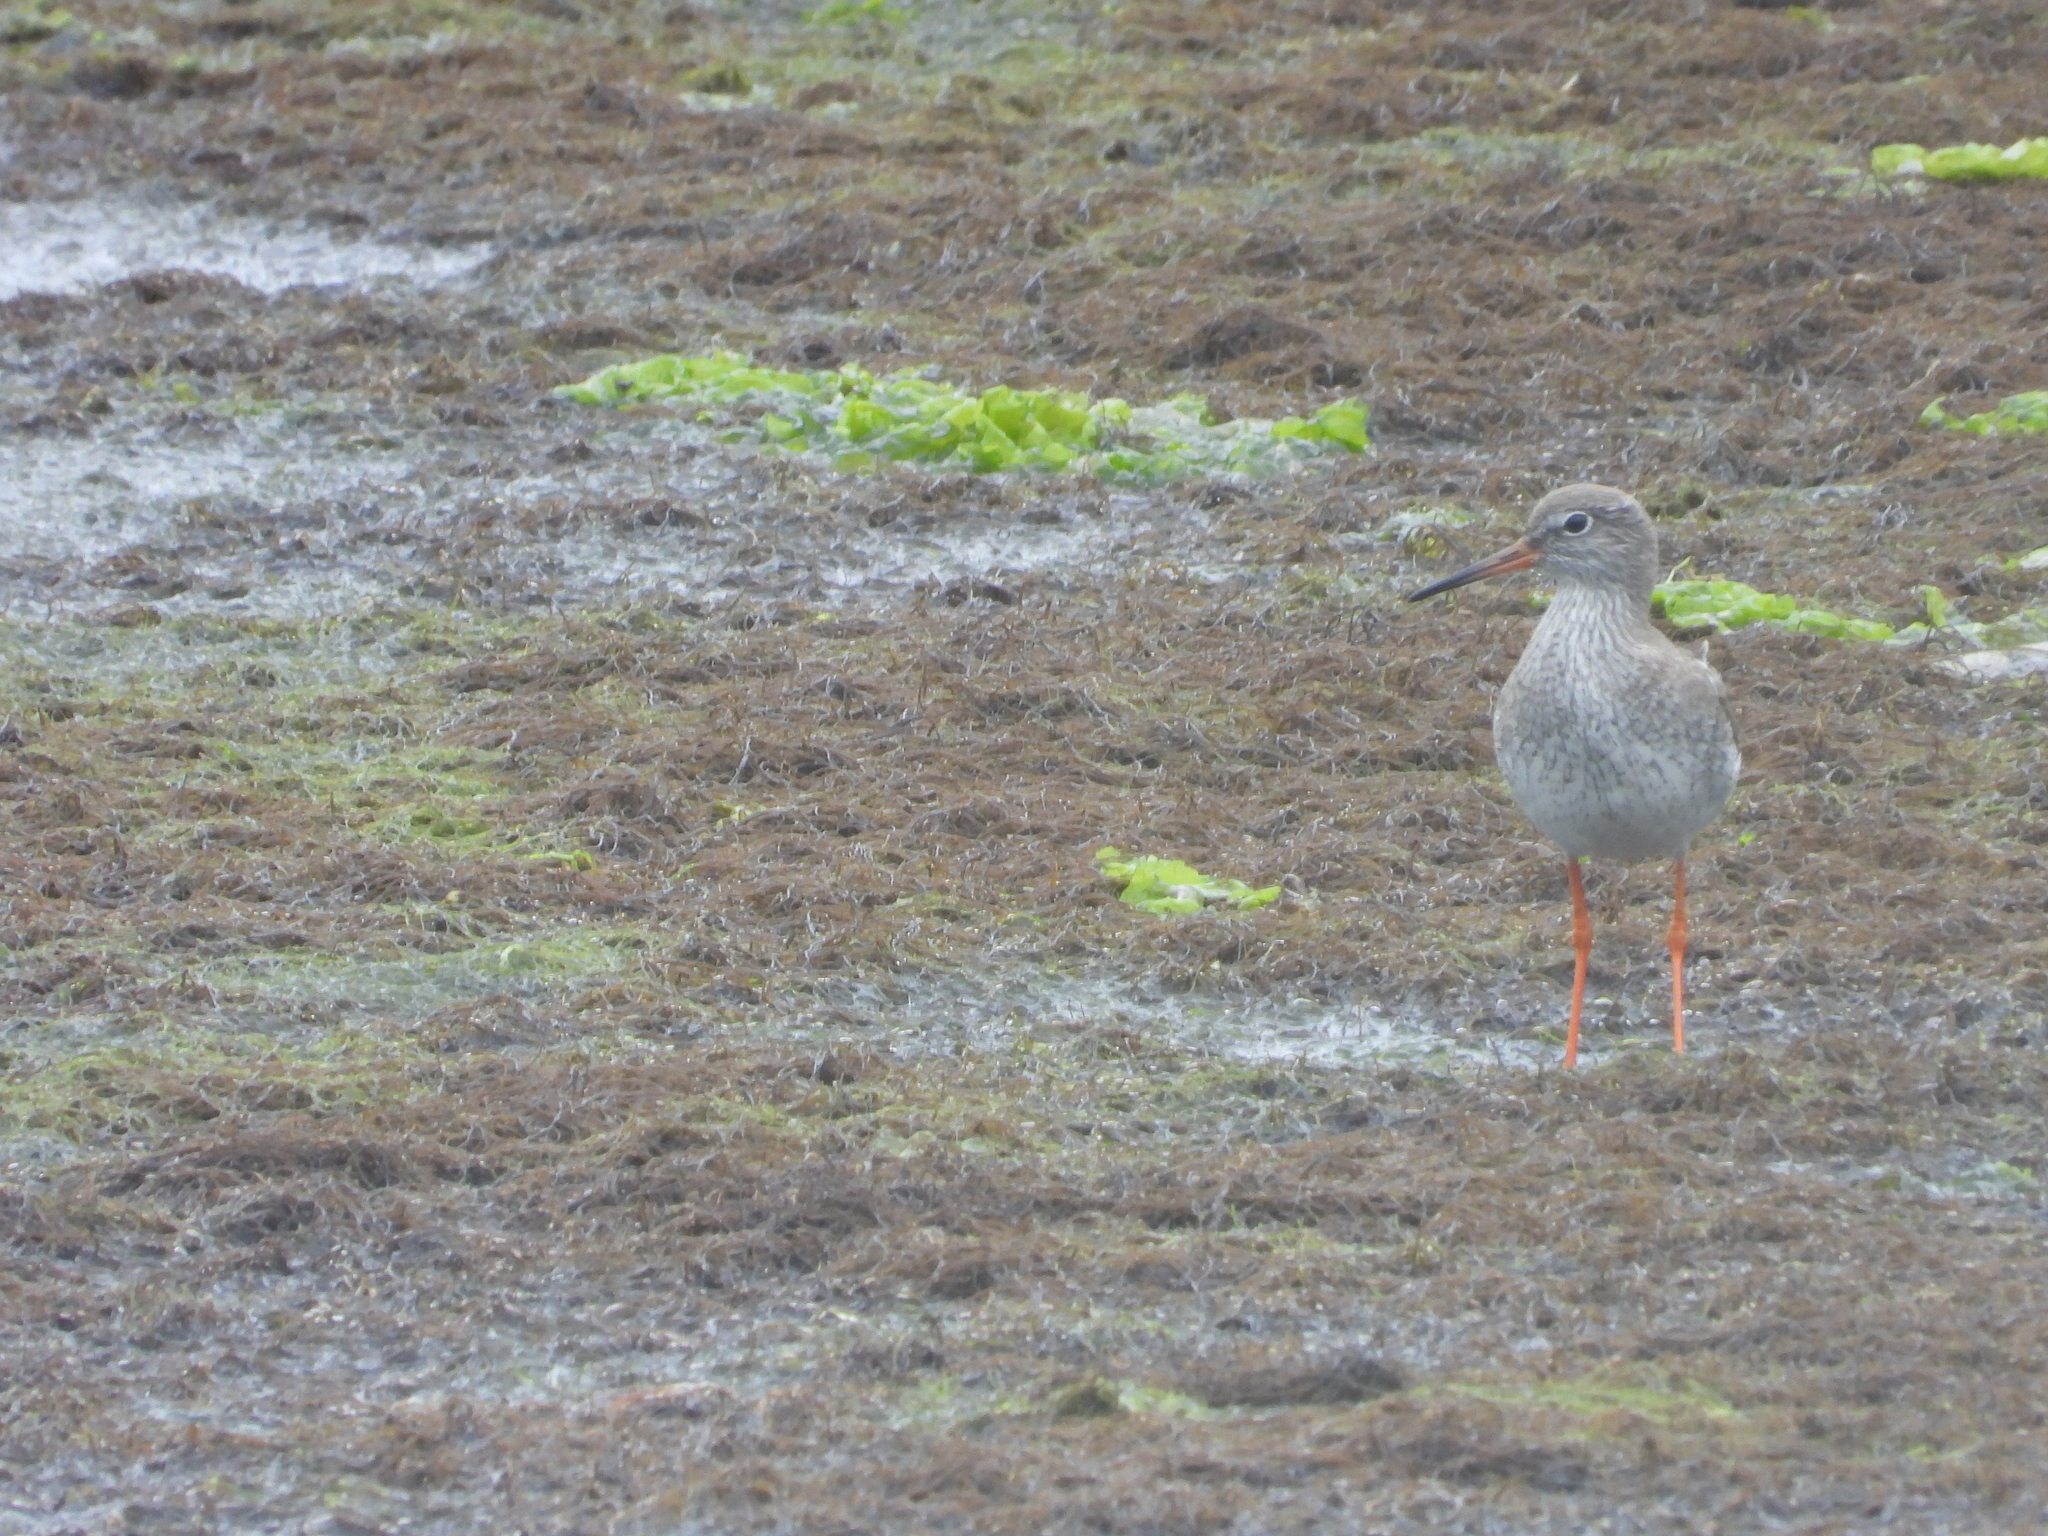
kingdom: Animalia
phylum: Chordata
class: Aves
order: Charadriiformes
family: Scolopacidae
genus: Tringa
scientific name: Tringa totanus
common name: Common redshank
